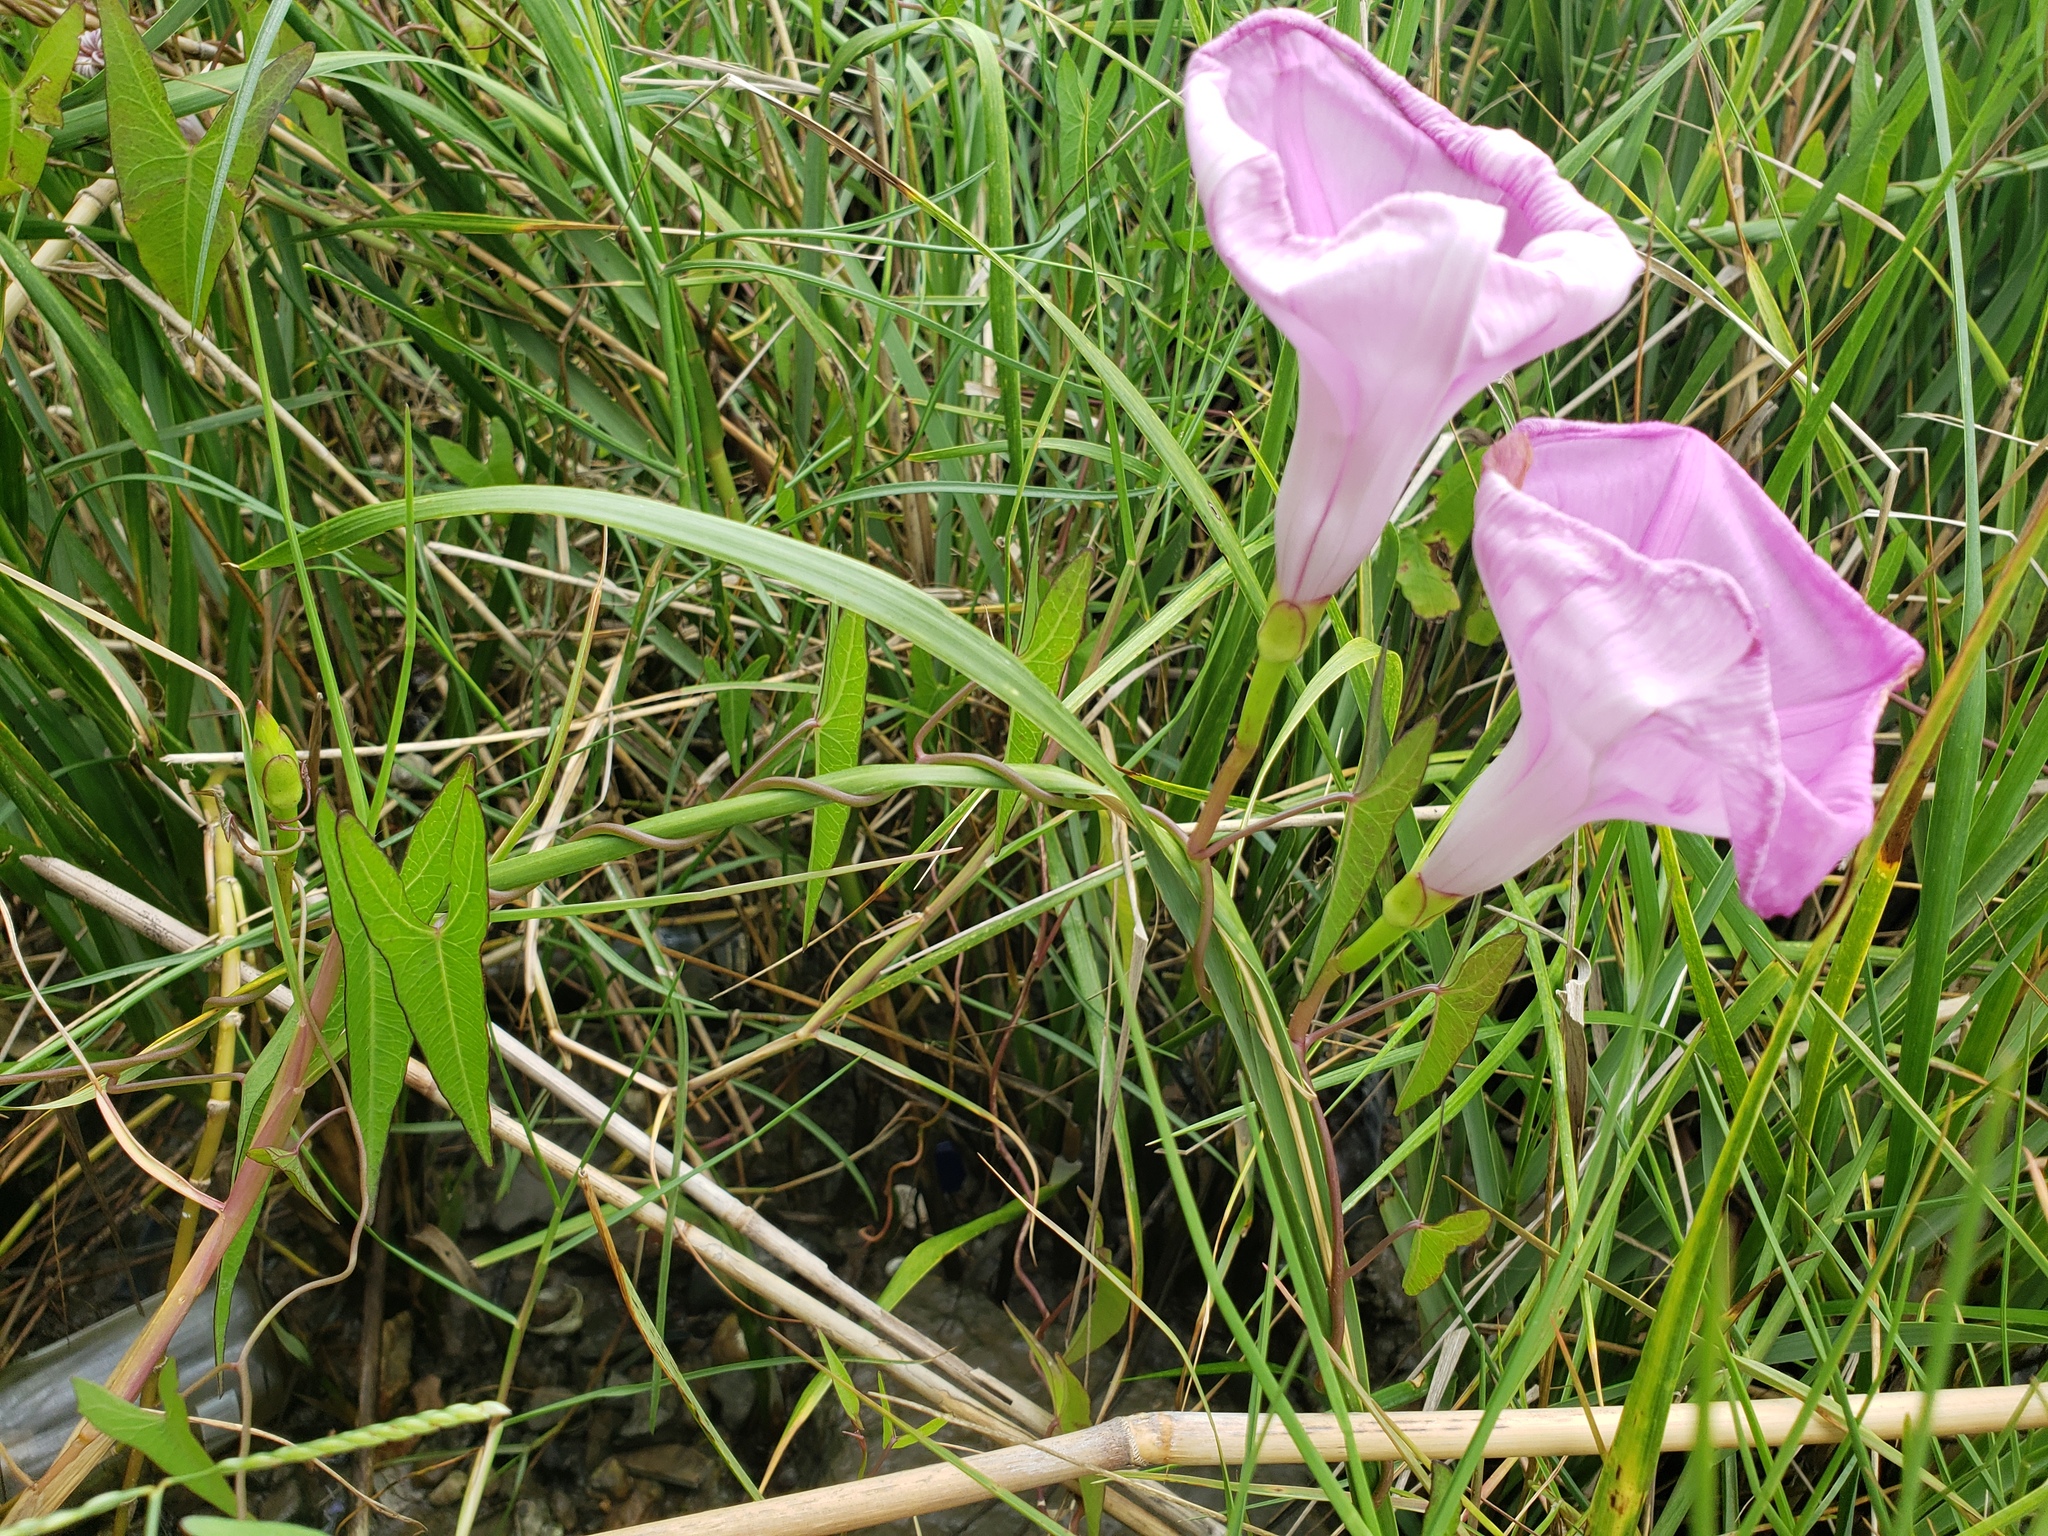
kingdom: Plantae
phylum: Tracheophyta
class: Magnoliopsida
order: Solanales
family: Convolvulaceae
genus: Ipomoea
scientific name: Ipomoea sagittata
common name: Saltmarsh morning glory
